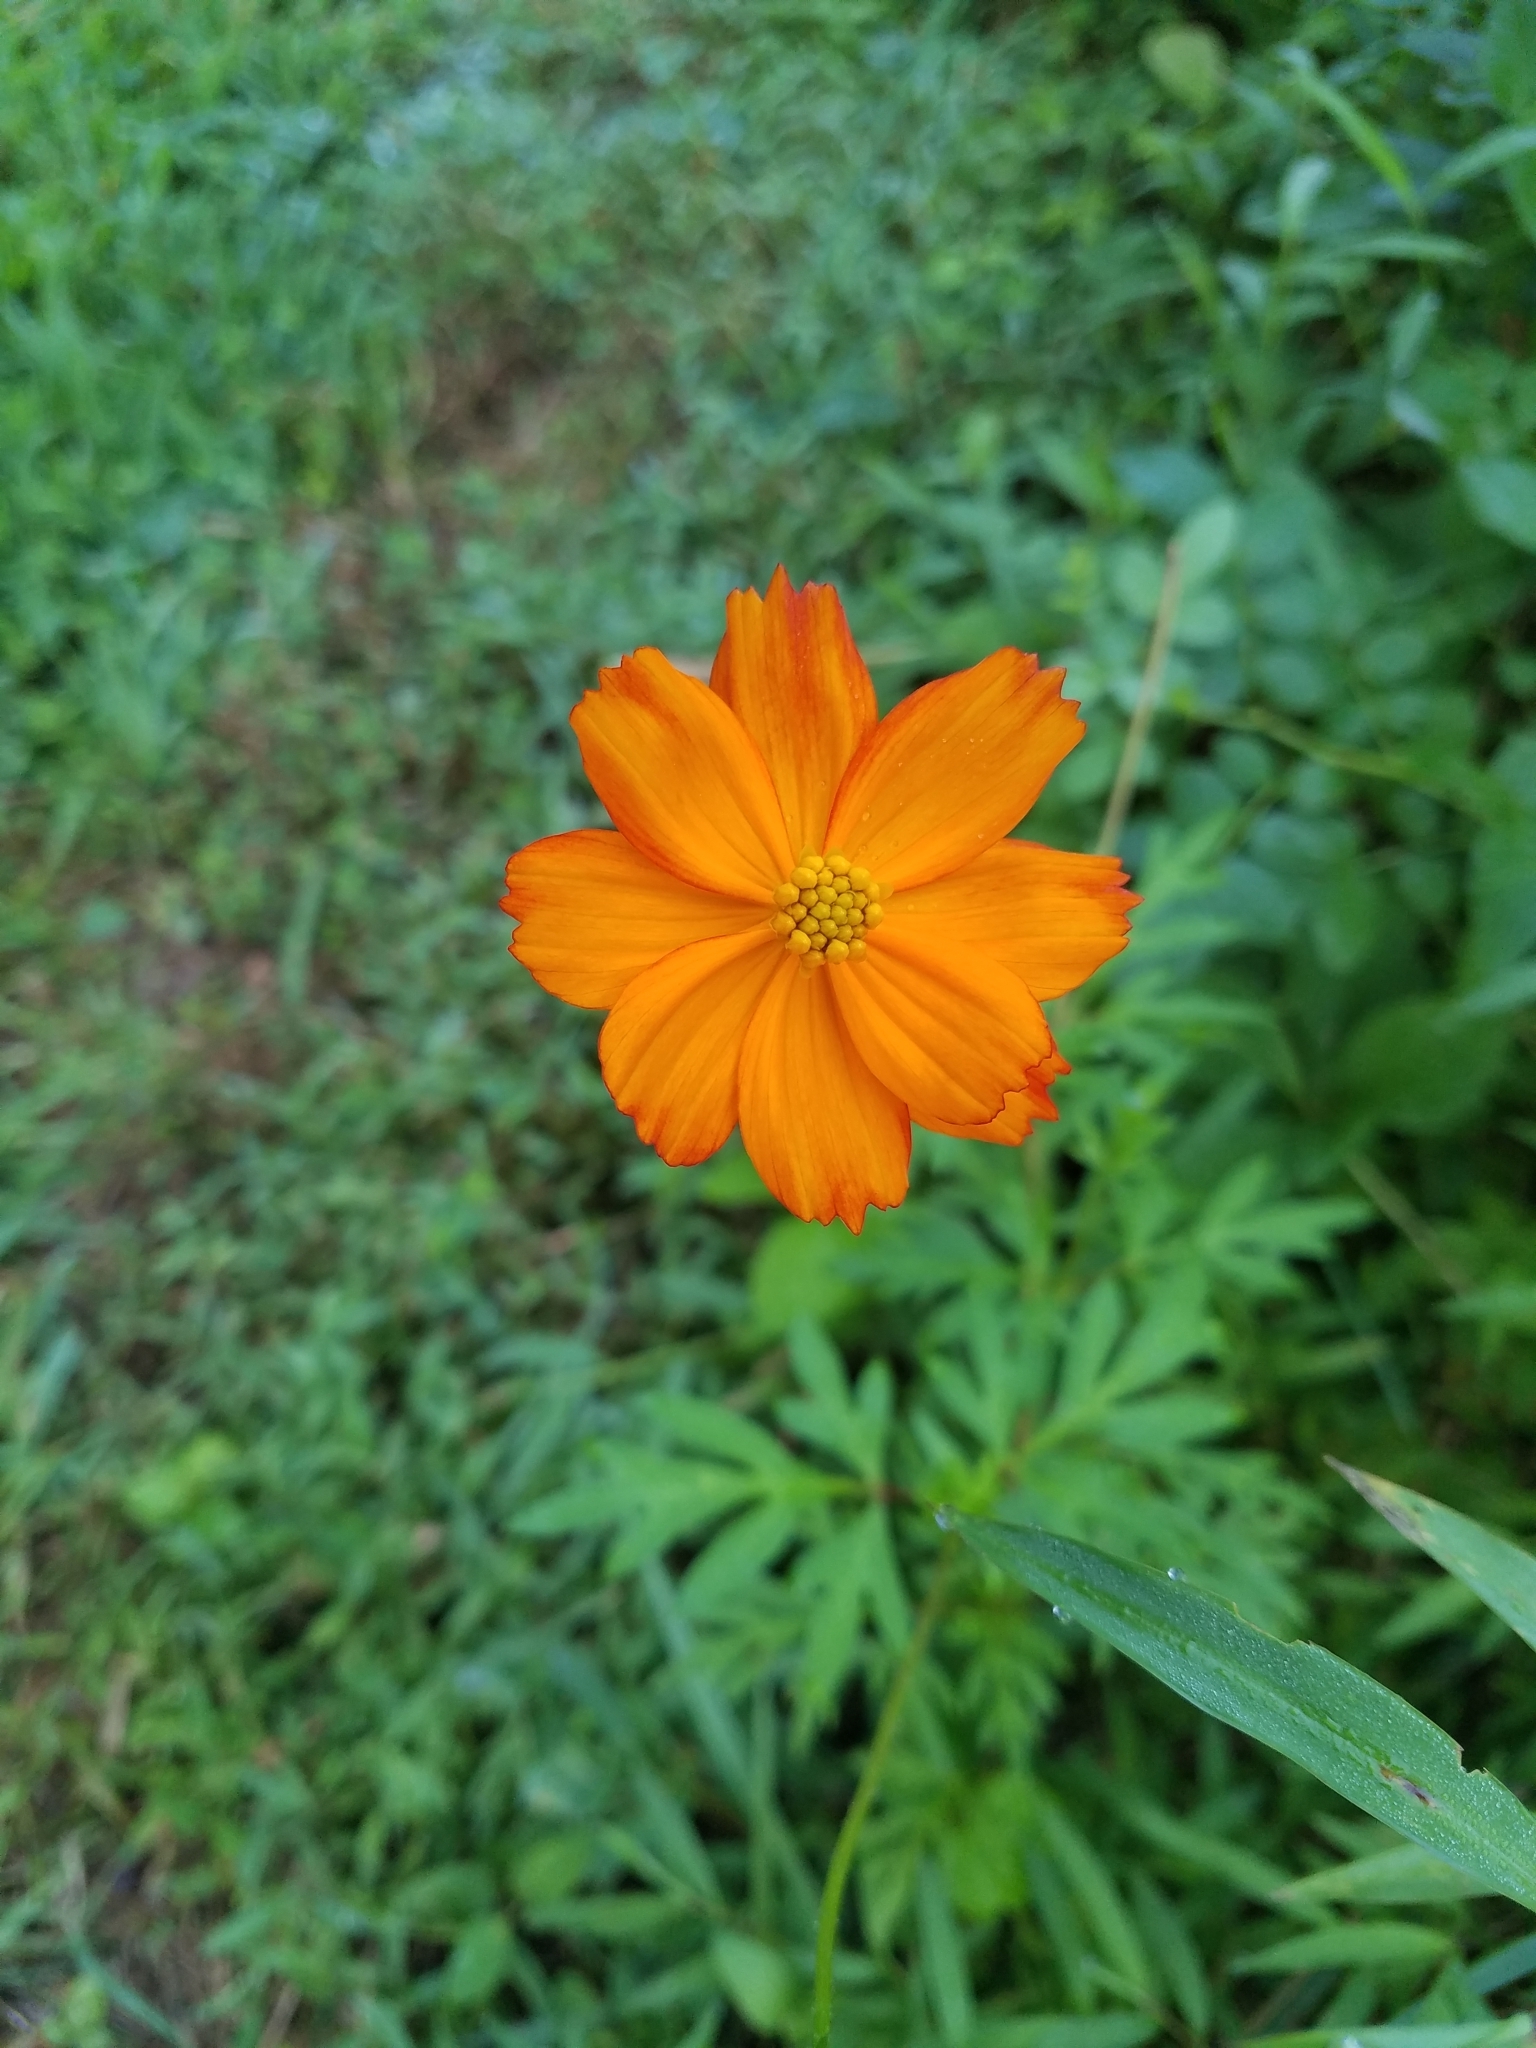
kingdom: Plantae
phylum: Tracheophyta
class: Magnoliopsida
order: Asterales
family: Asteraceae
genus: Cosmos
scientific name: Cosmos sulphureus
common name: Sulphur cosmos
